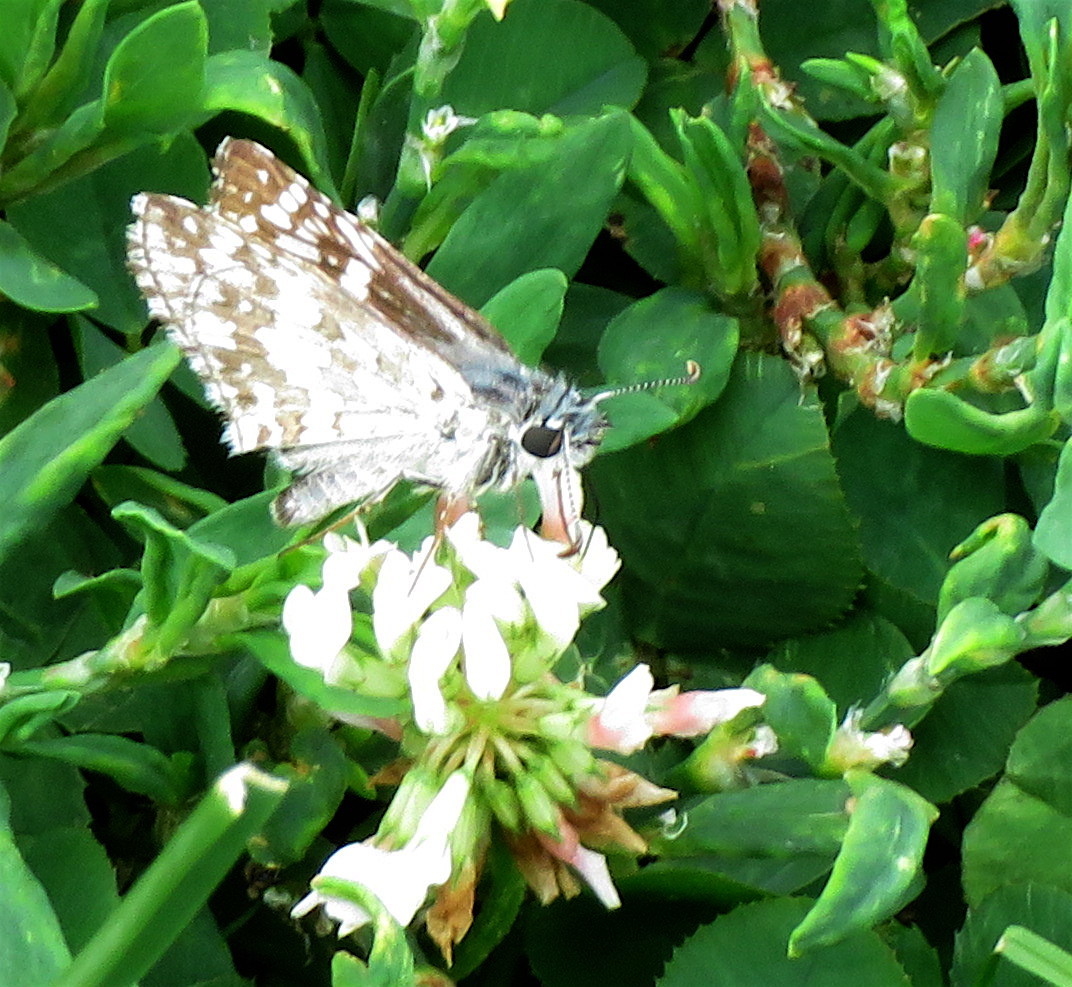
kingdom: Animalia
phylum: Arthropoda
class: Insecta
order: Lepidoptera
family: Hesperiidae
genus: Burnsius
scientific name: Burnsius communis
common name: Common checkered-skipper
